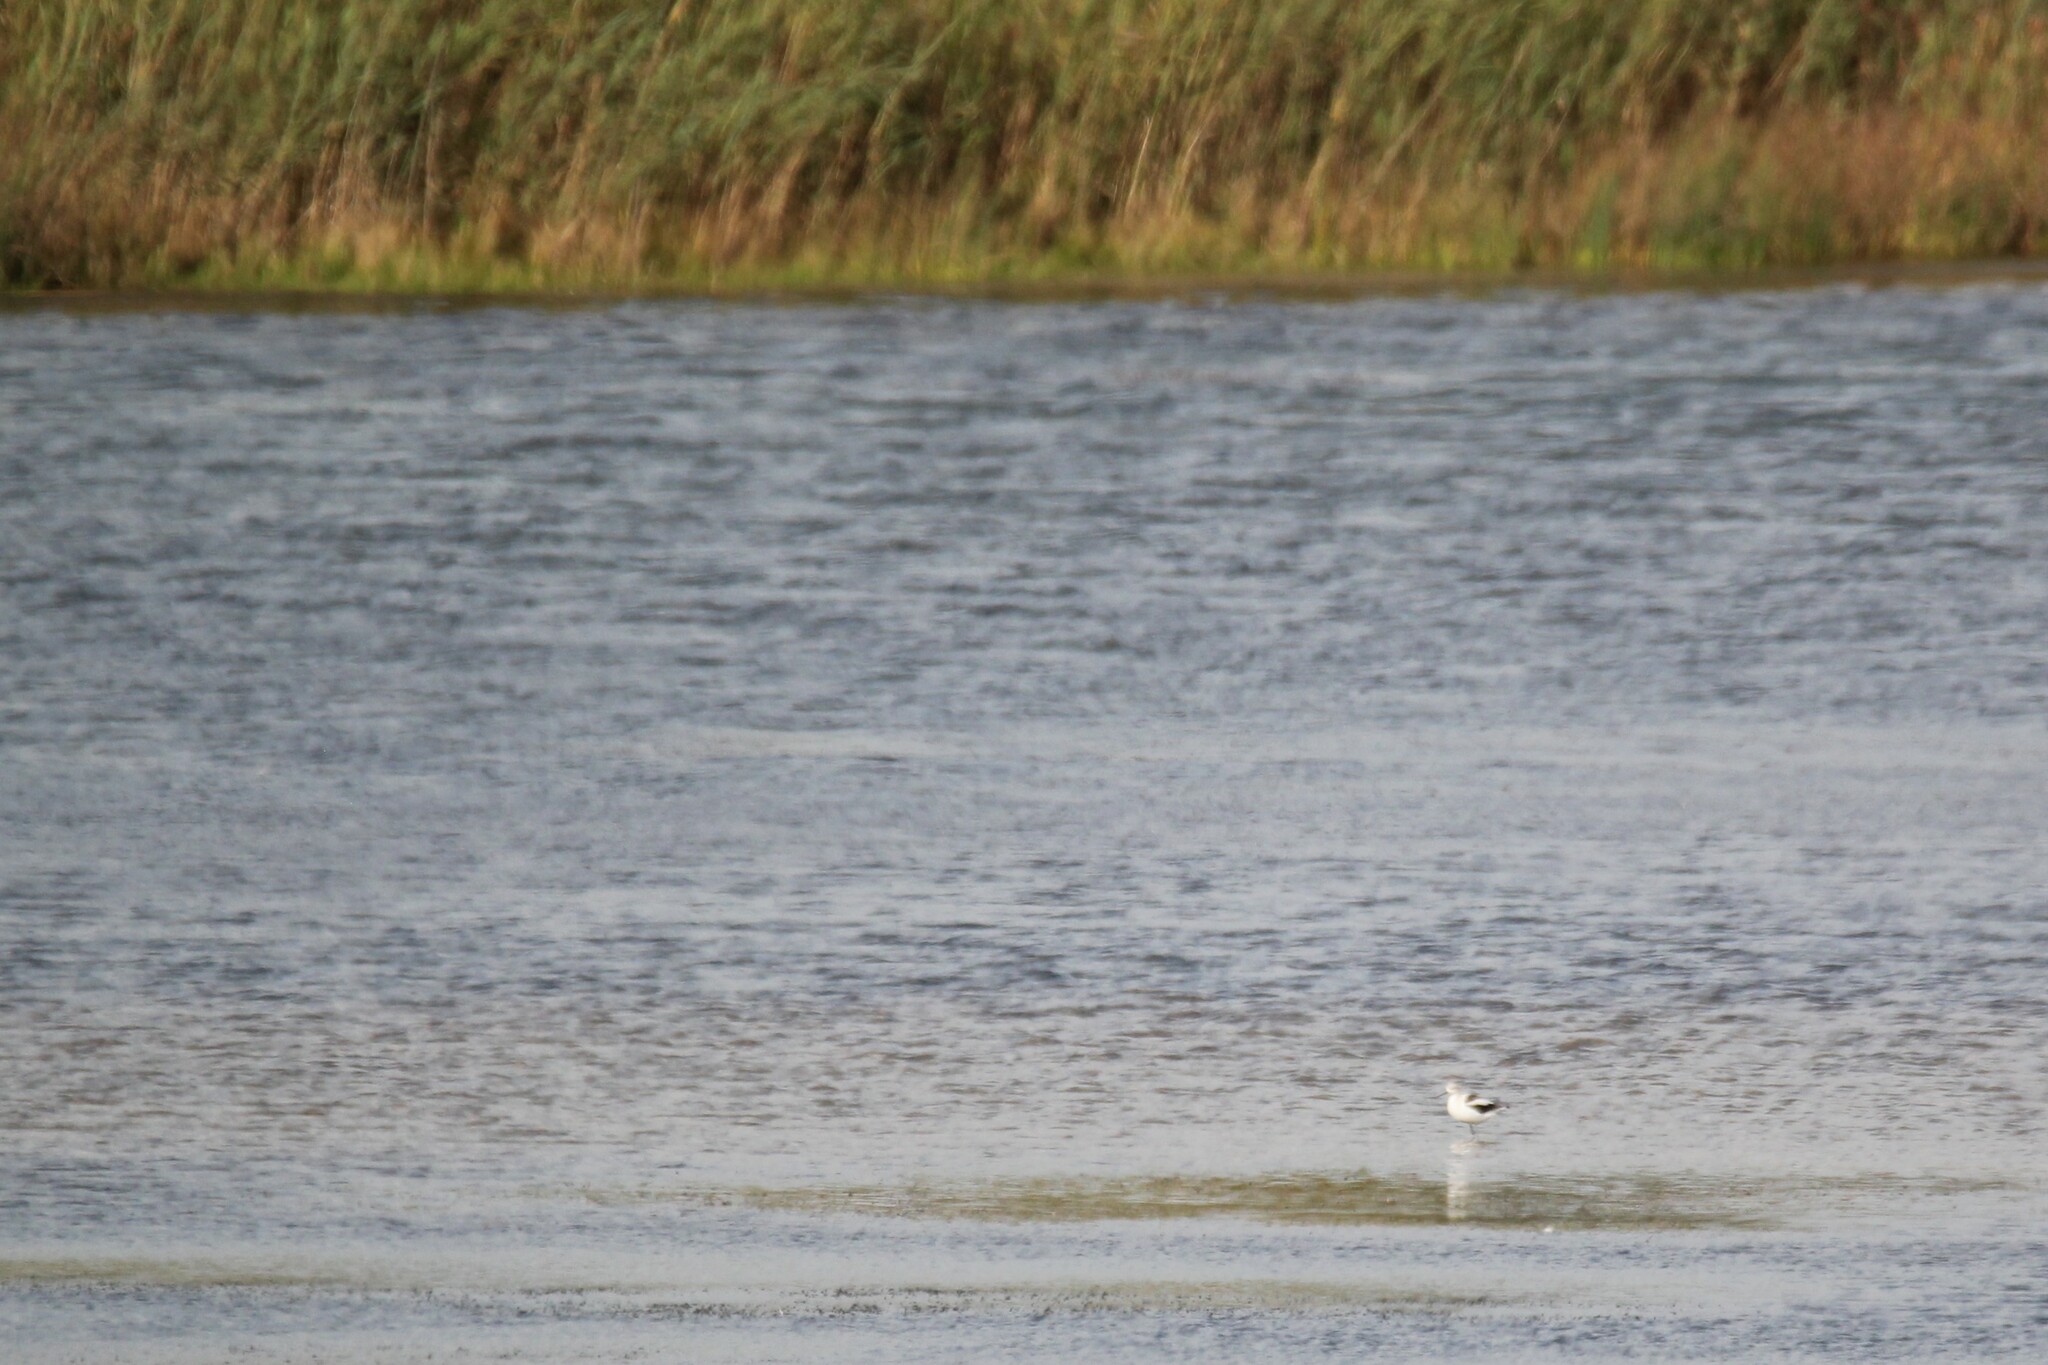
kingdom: Animalia
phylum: Chordata
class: Aves
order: Charadriiformes
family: Recurvirostridae
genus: Recurvirostra
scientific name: Recurvirostra americana
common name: American avocet
